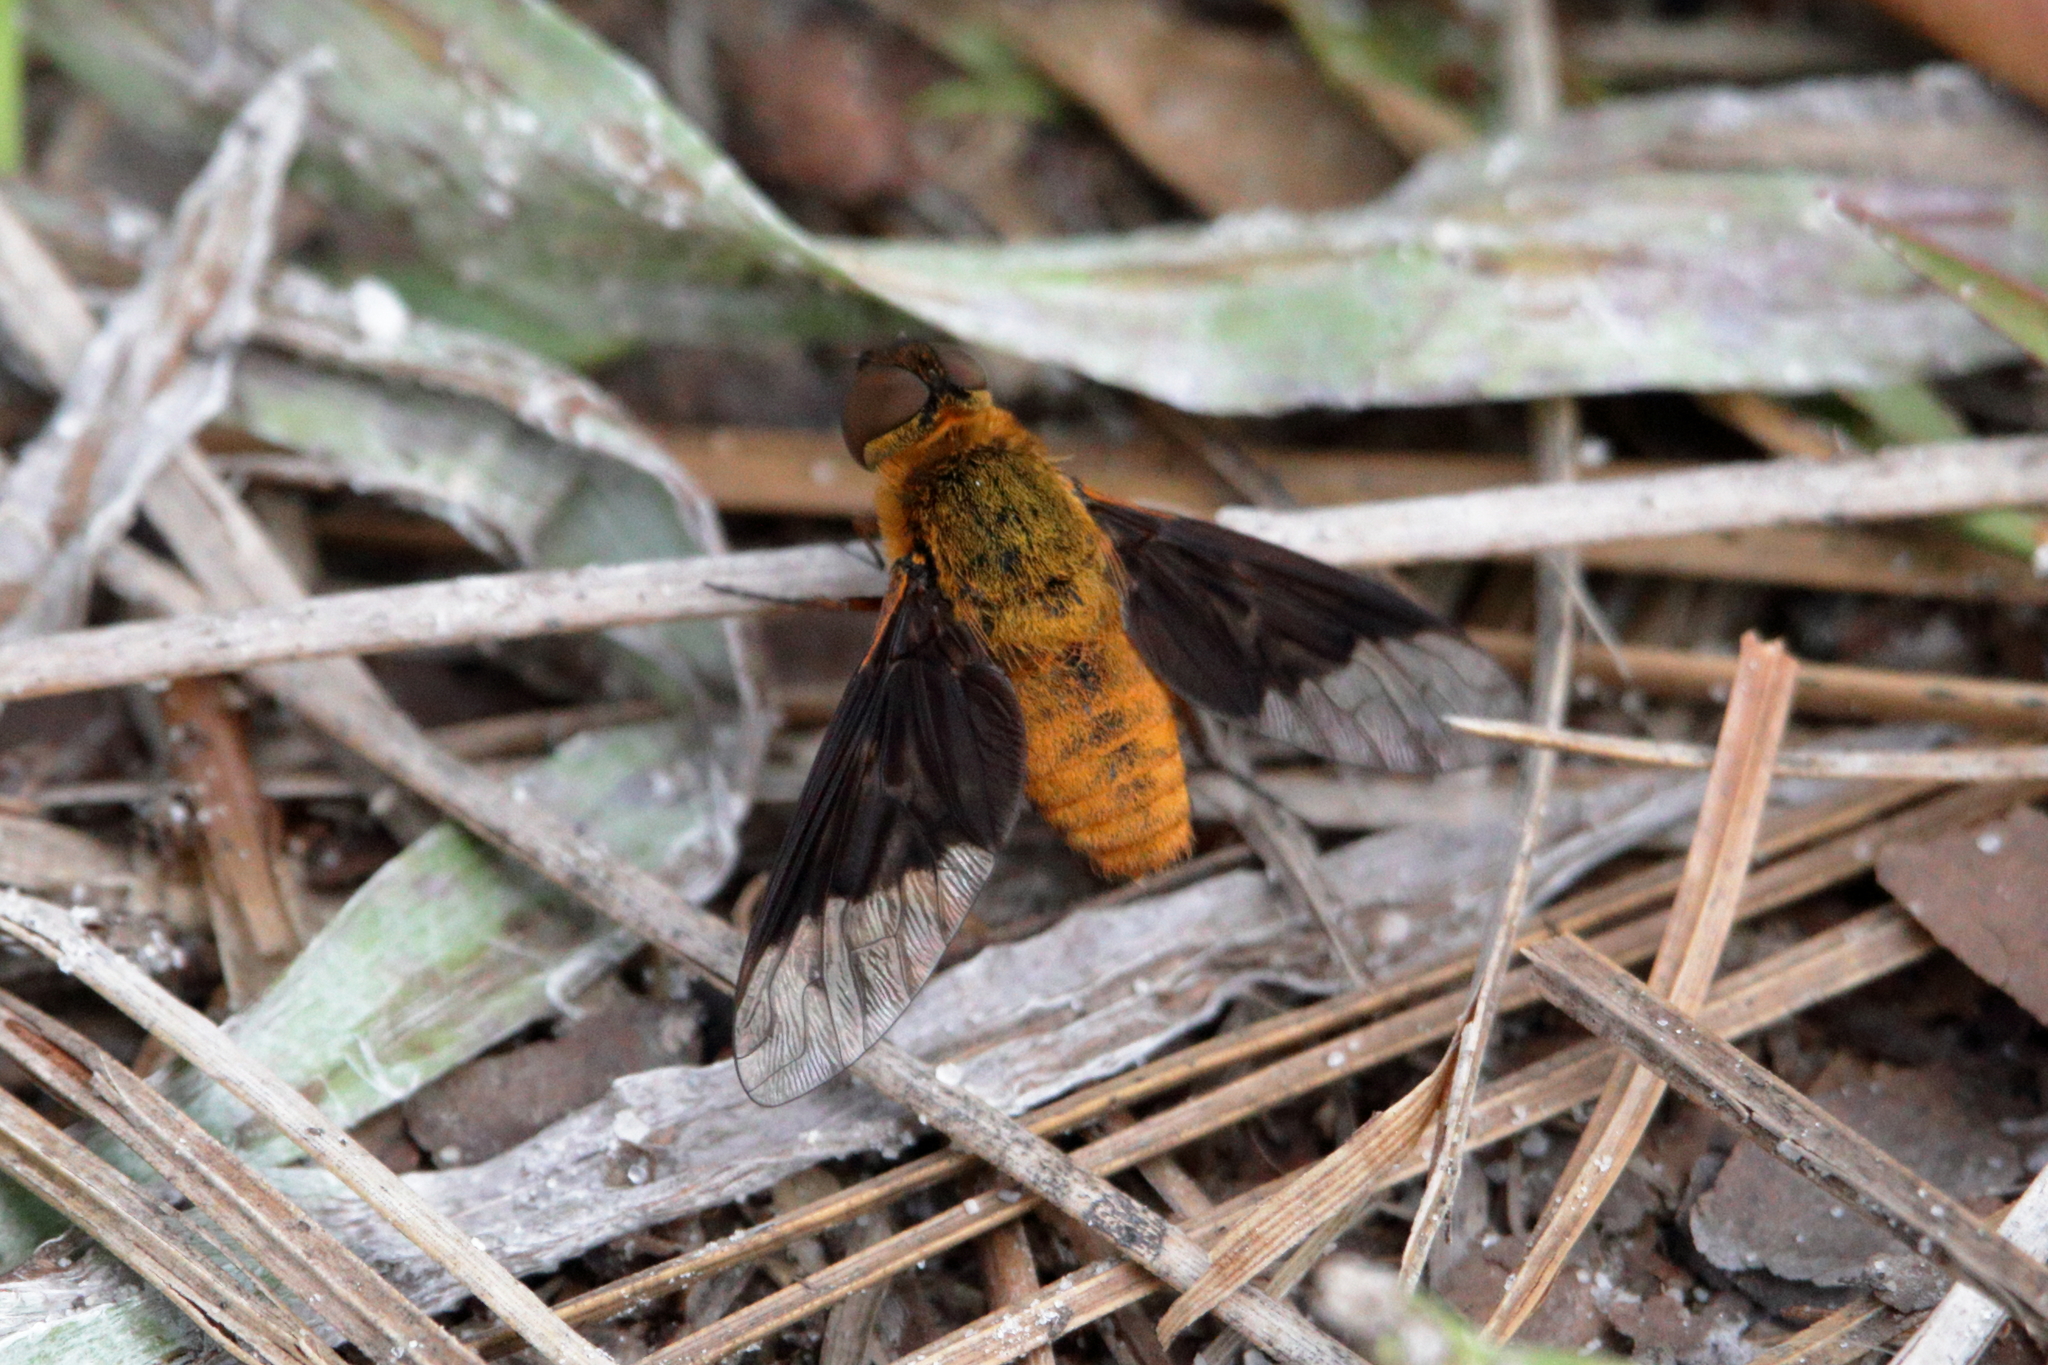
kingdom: Animalia
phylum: Arthropoda
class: Insecta
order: Diptera
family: Bombyliidae
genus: Chrysanthrax
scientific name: Chrysanthrax cypris
